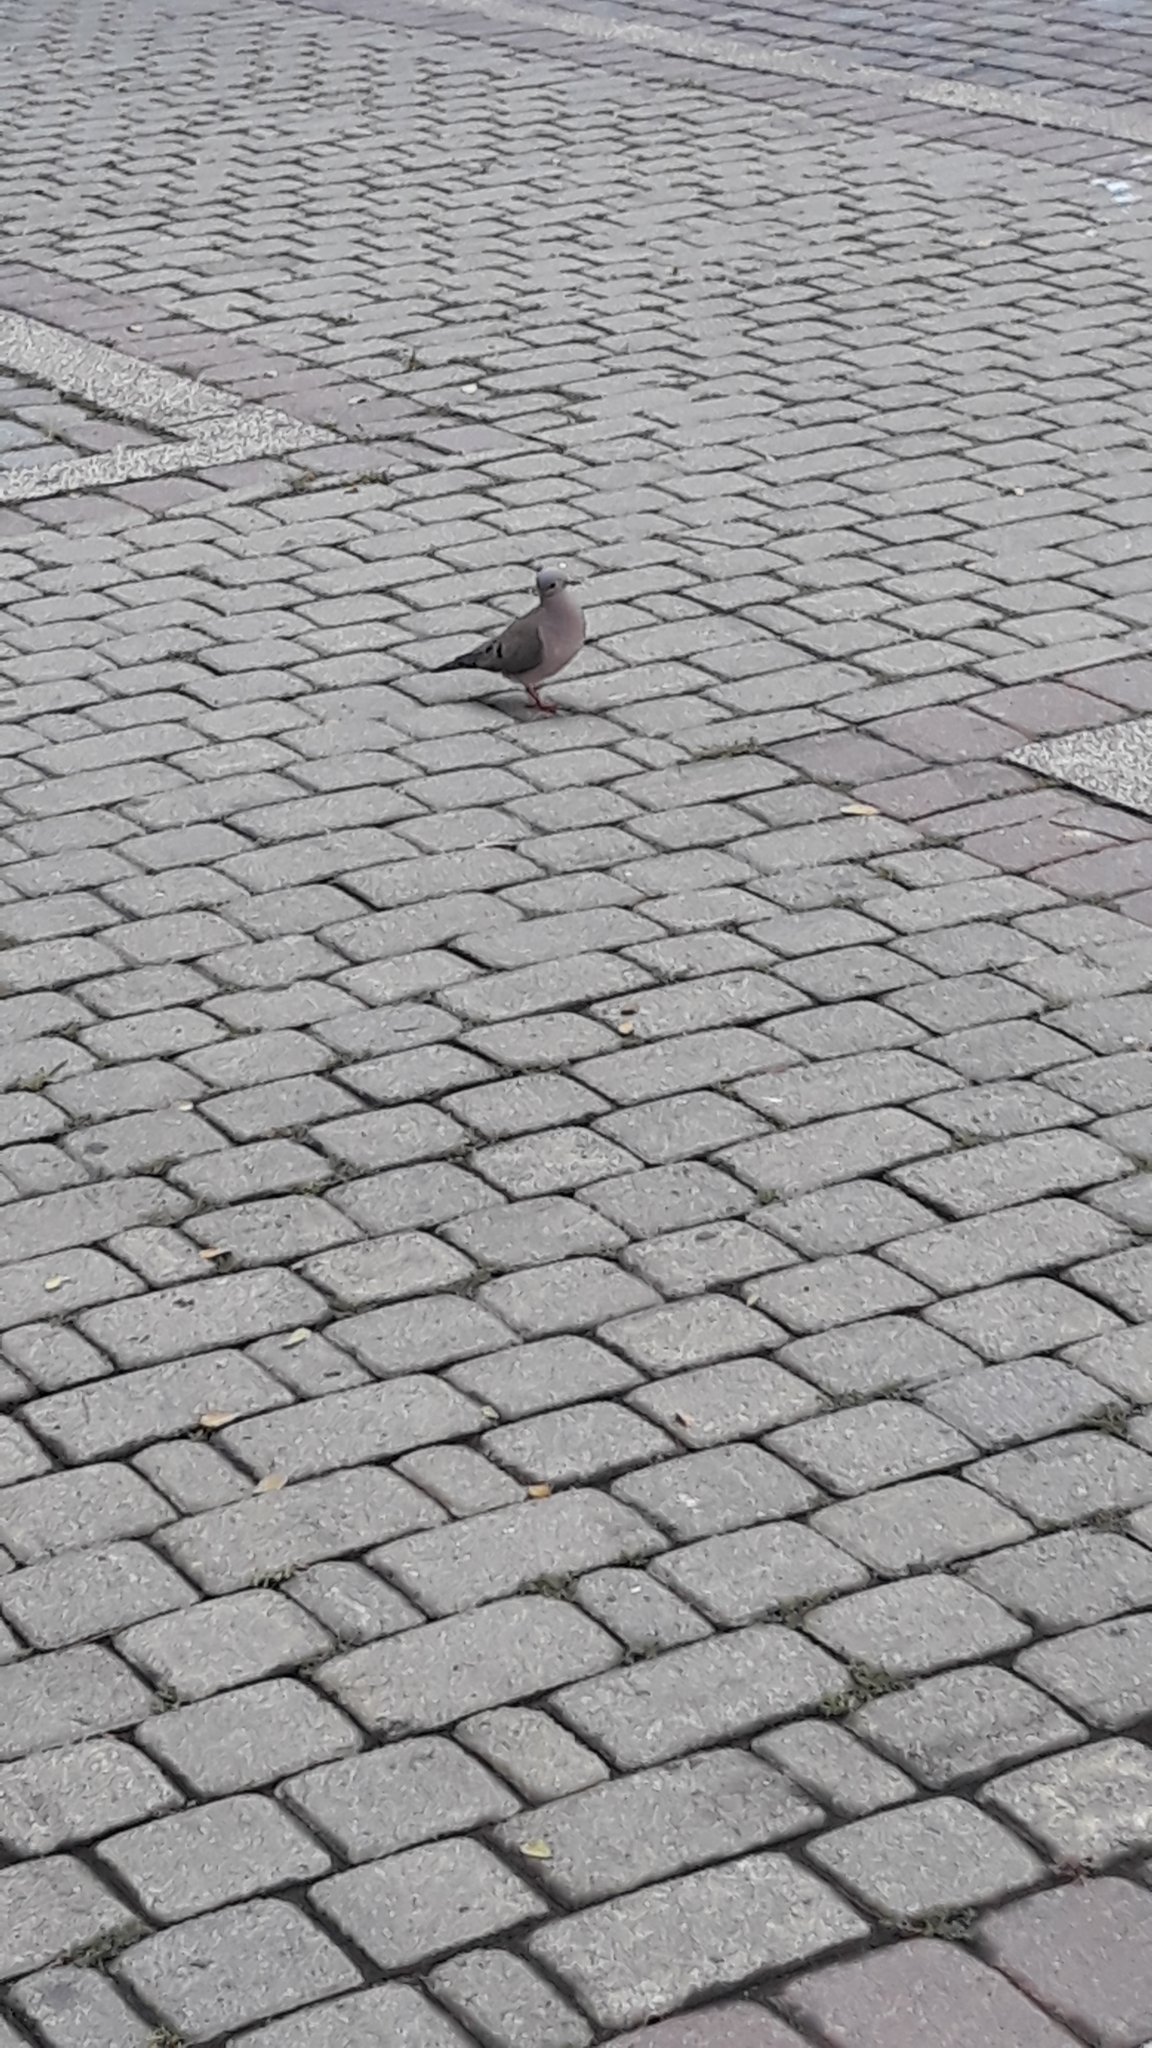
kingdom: Animalia
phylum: Chordata
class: Aves
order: Columbiformes
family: Columbidae
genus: Zenaida
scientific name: Zenaida auriculata
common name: Eared dove
